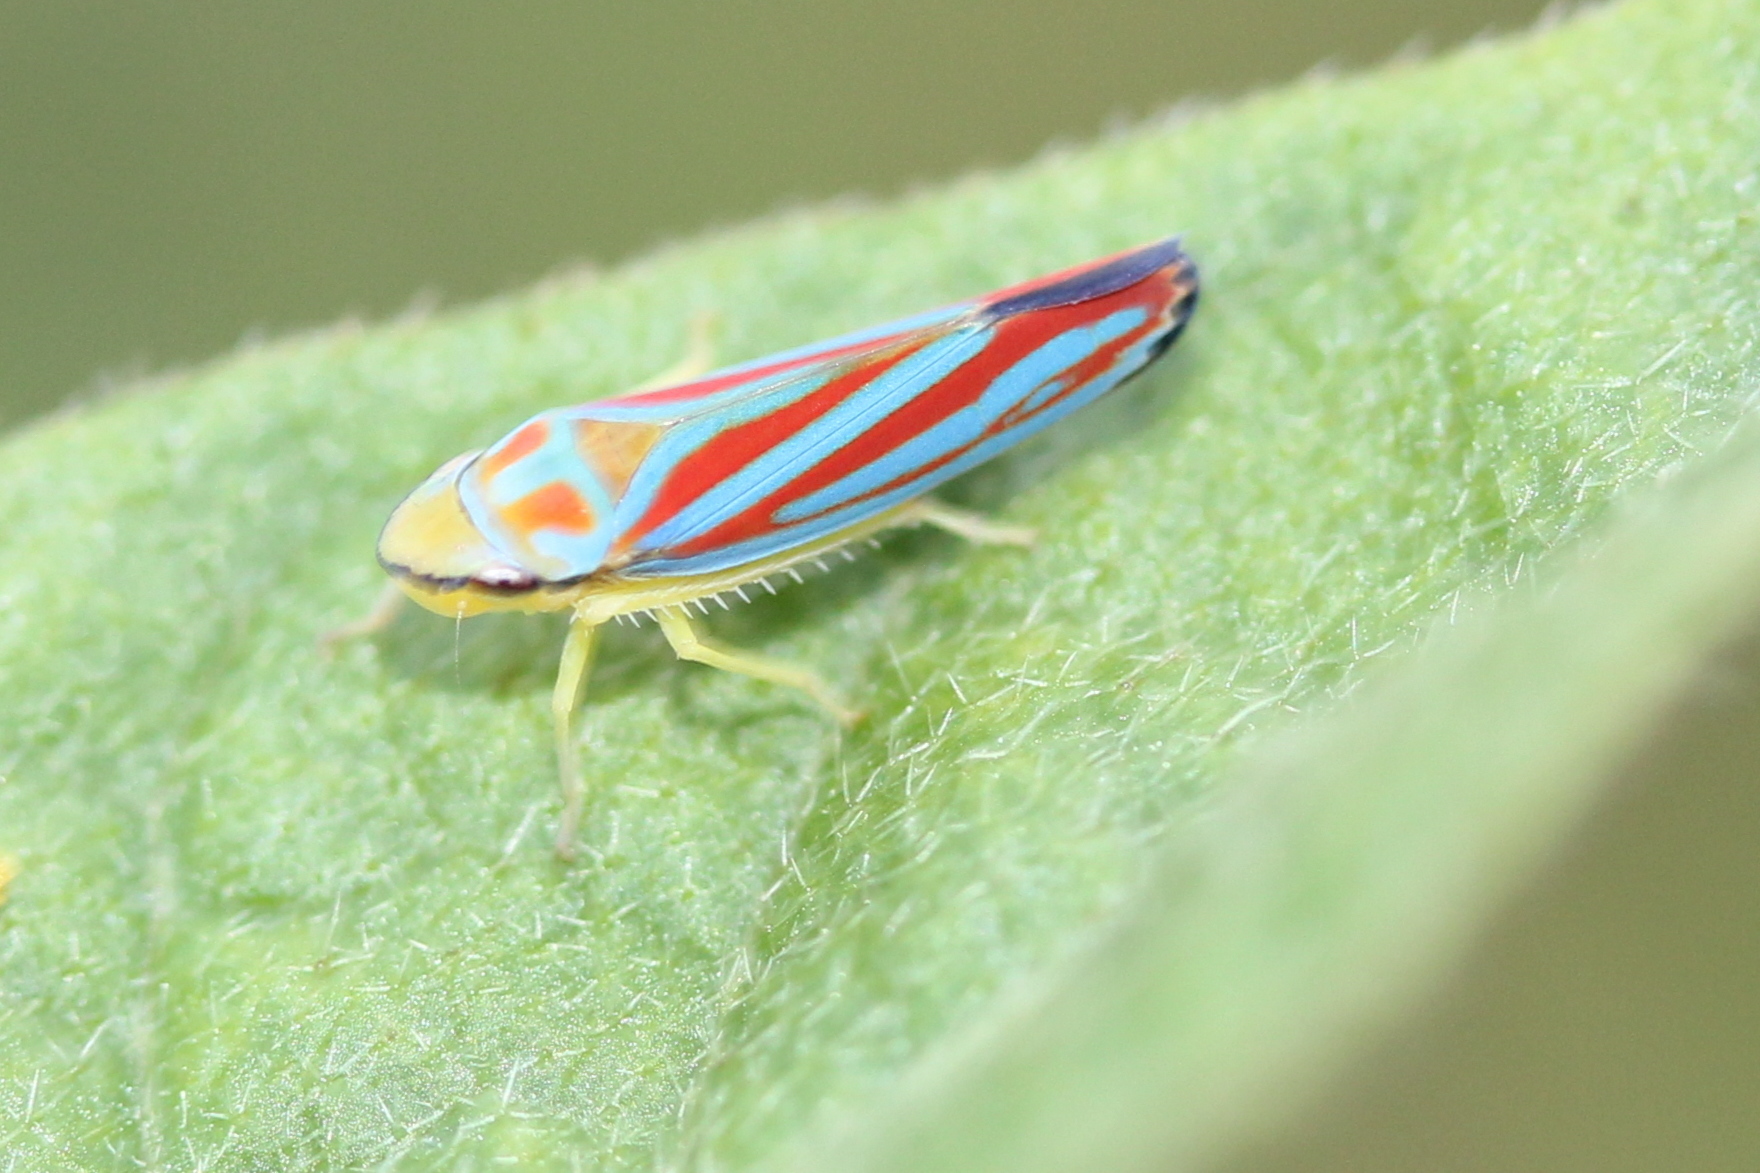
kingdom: Animalia
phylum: Arthropoda
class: Insecta
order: Hemiptera
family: Cicadellidae
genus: Graphocephala
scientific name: Graphocephala coccinea
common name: Candy-striped leafhopper
